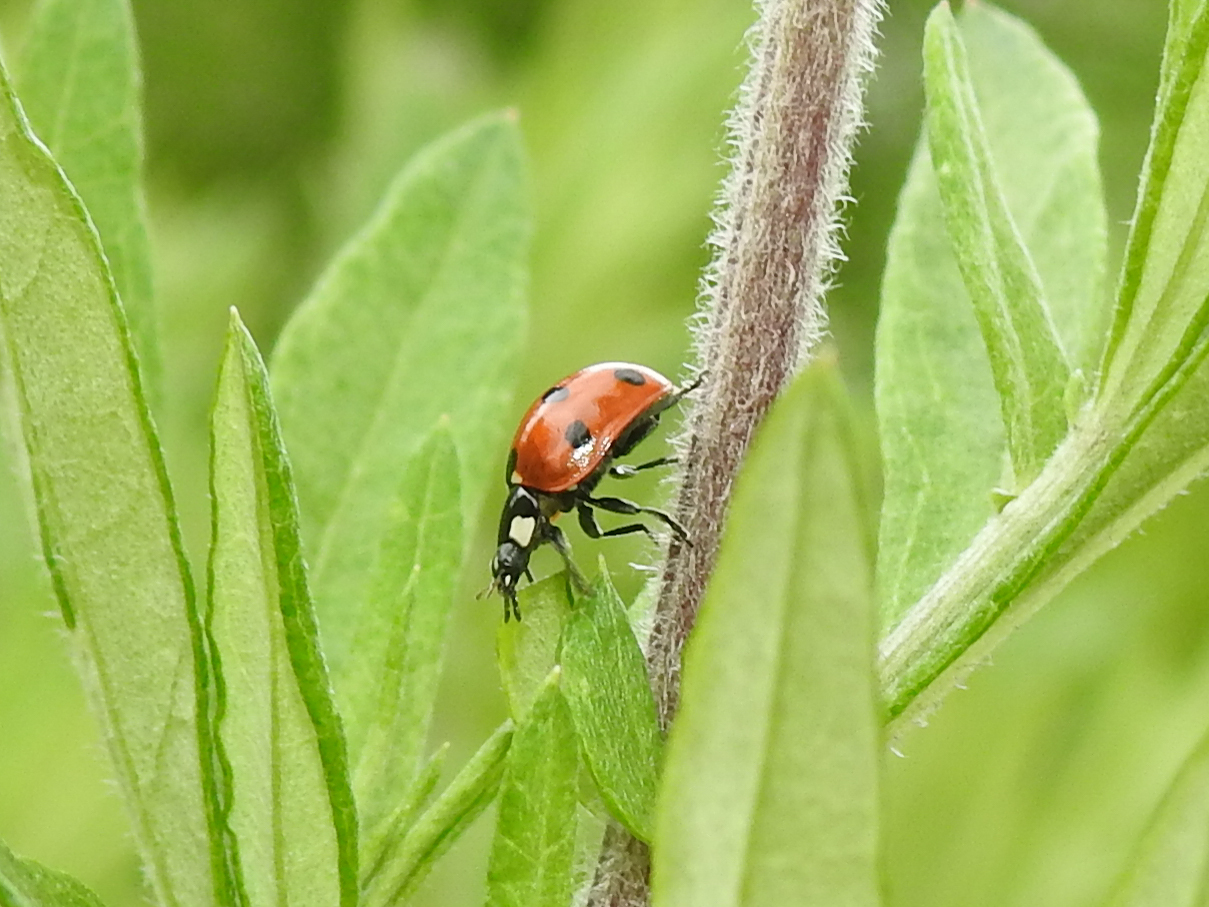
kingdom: Animalia
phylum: Arthropoda
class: Insecta
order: Coleoptera
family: Coccinellidae
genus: Coccinella
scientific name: Coccinella septempunctata
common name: Sevenspotted lady beetle
